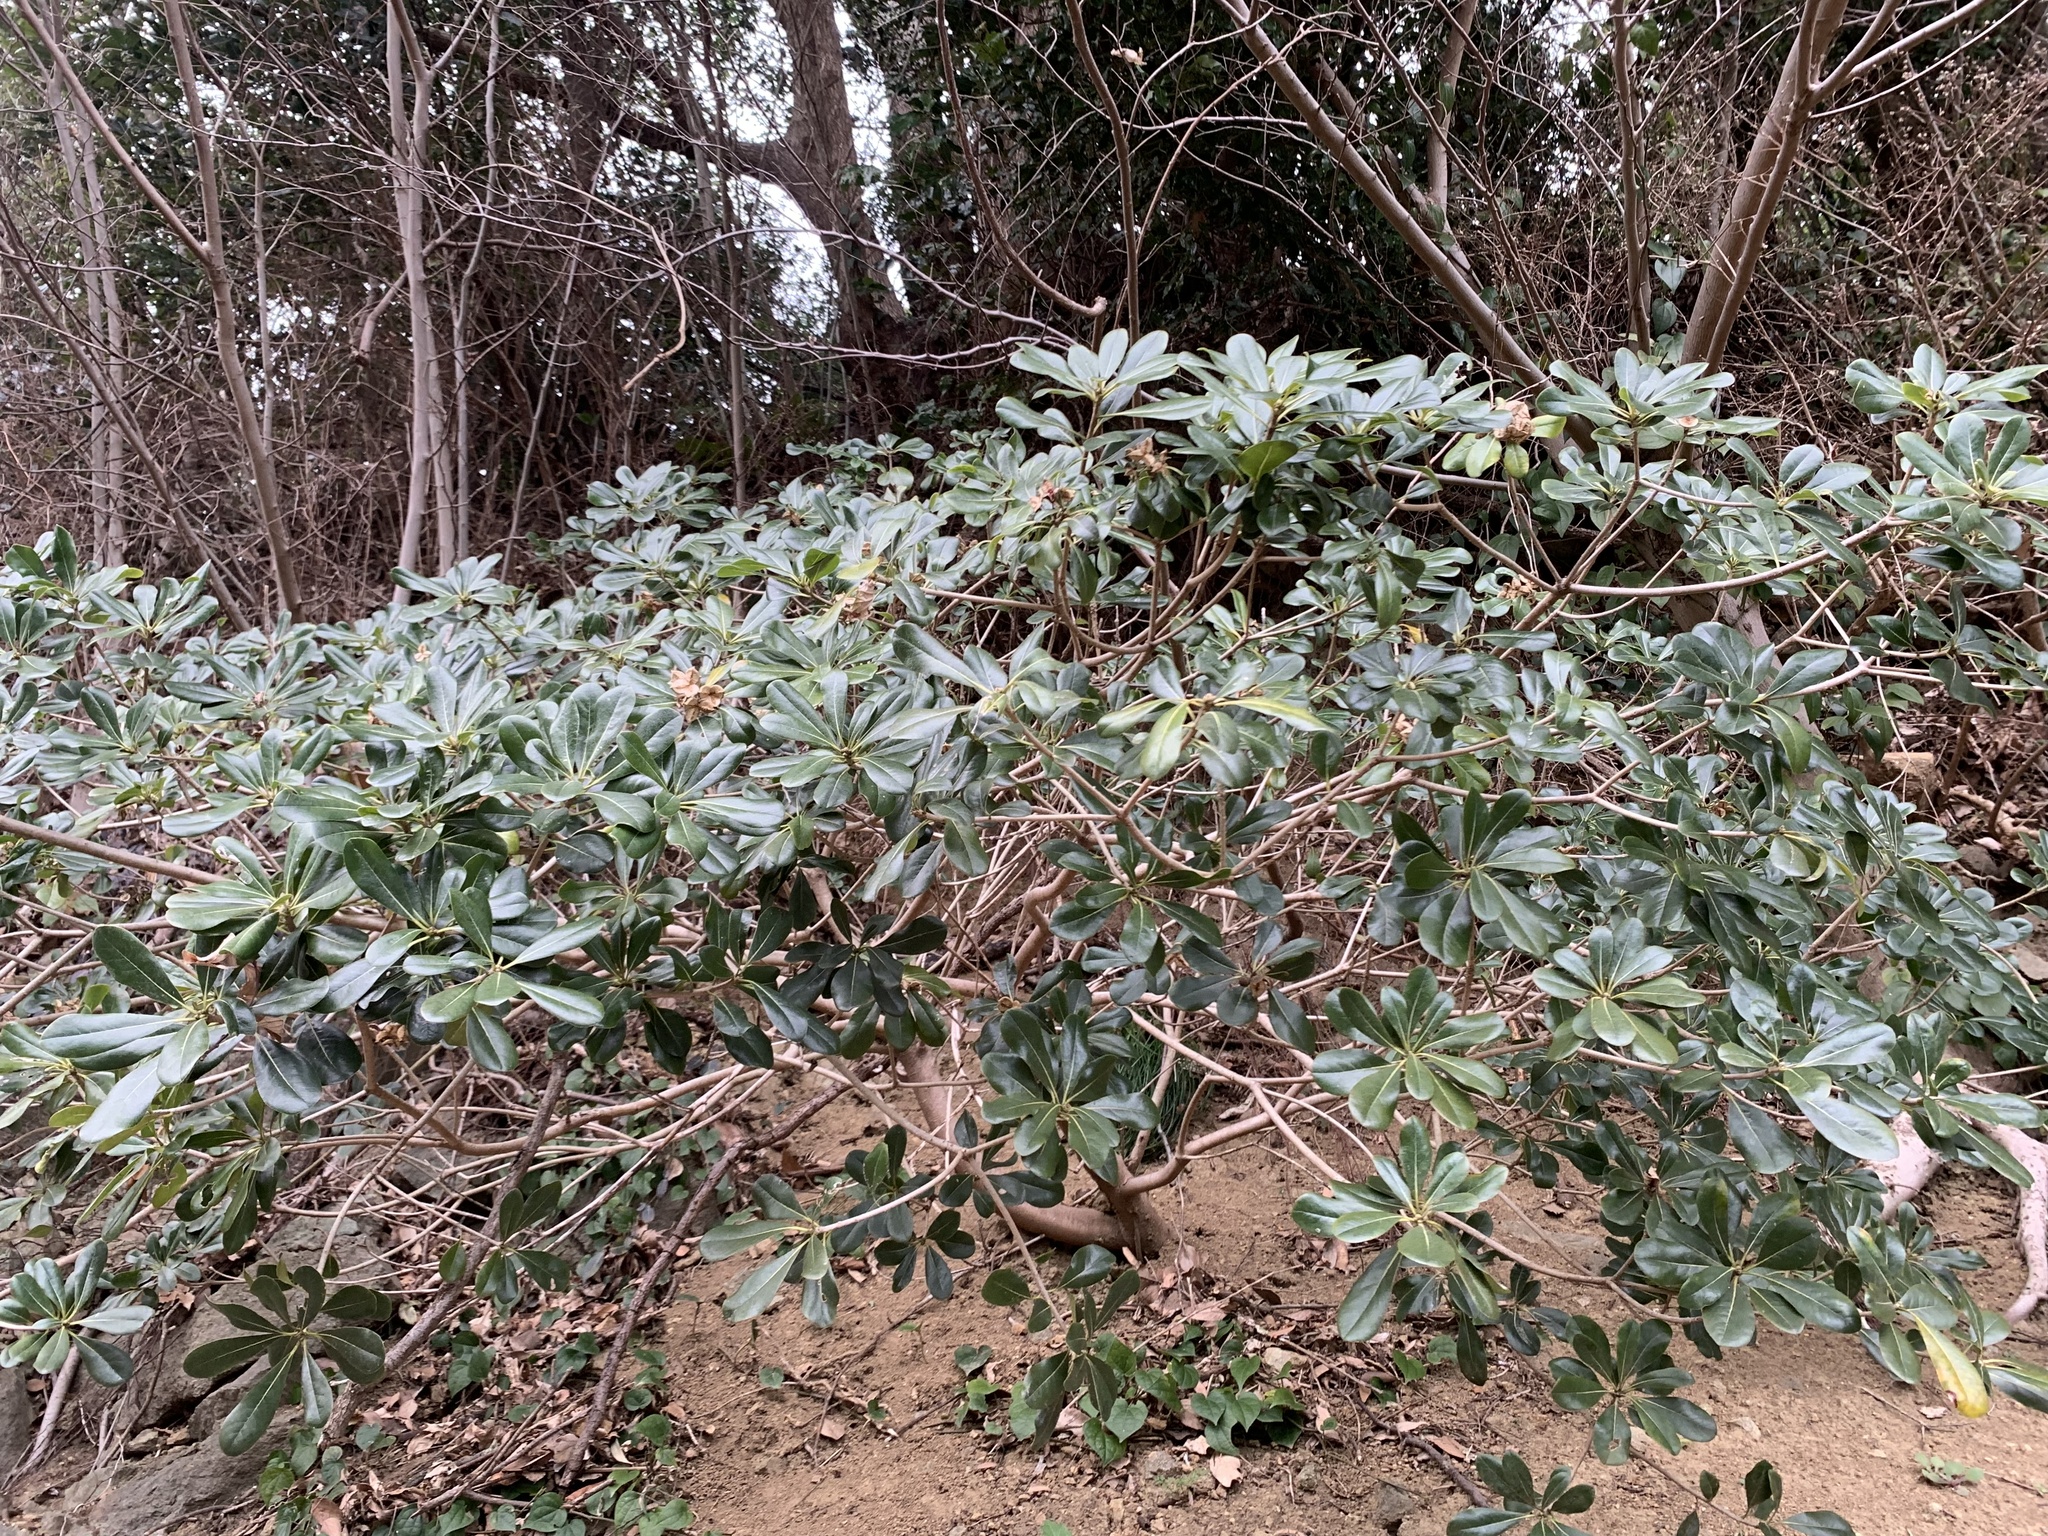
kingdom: Plantae
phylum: Tracheophyta
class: Magnoliopsida
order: Apiales
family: Pittosporaceae
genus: Pittosporum
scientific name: Pittosporum tobira
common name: Japanese cheesewood
